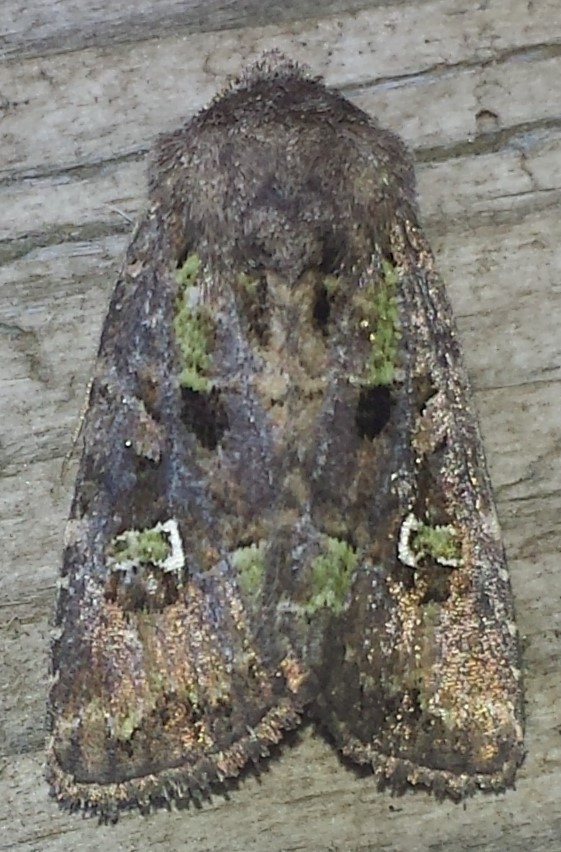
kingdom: Animalia
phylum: Arthropoda
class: Insecta
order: Lepidoptera
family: Noctuidae
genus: Lacinipolia
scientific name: Lacinipolia renigera
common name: Kidney-spotted minor
